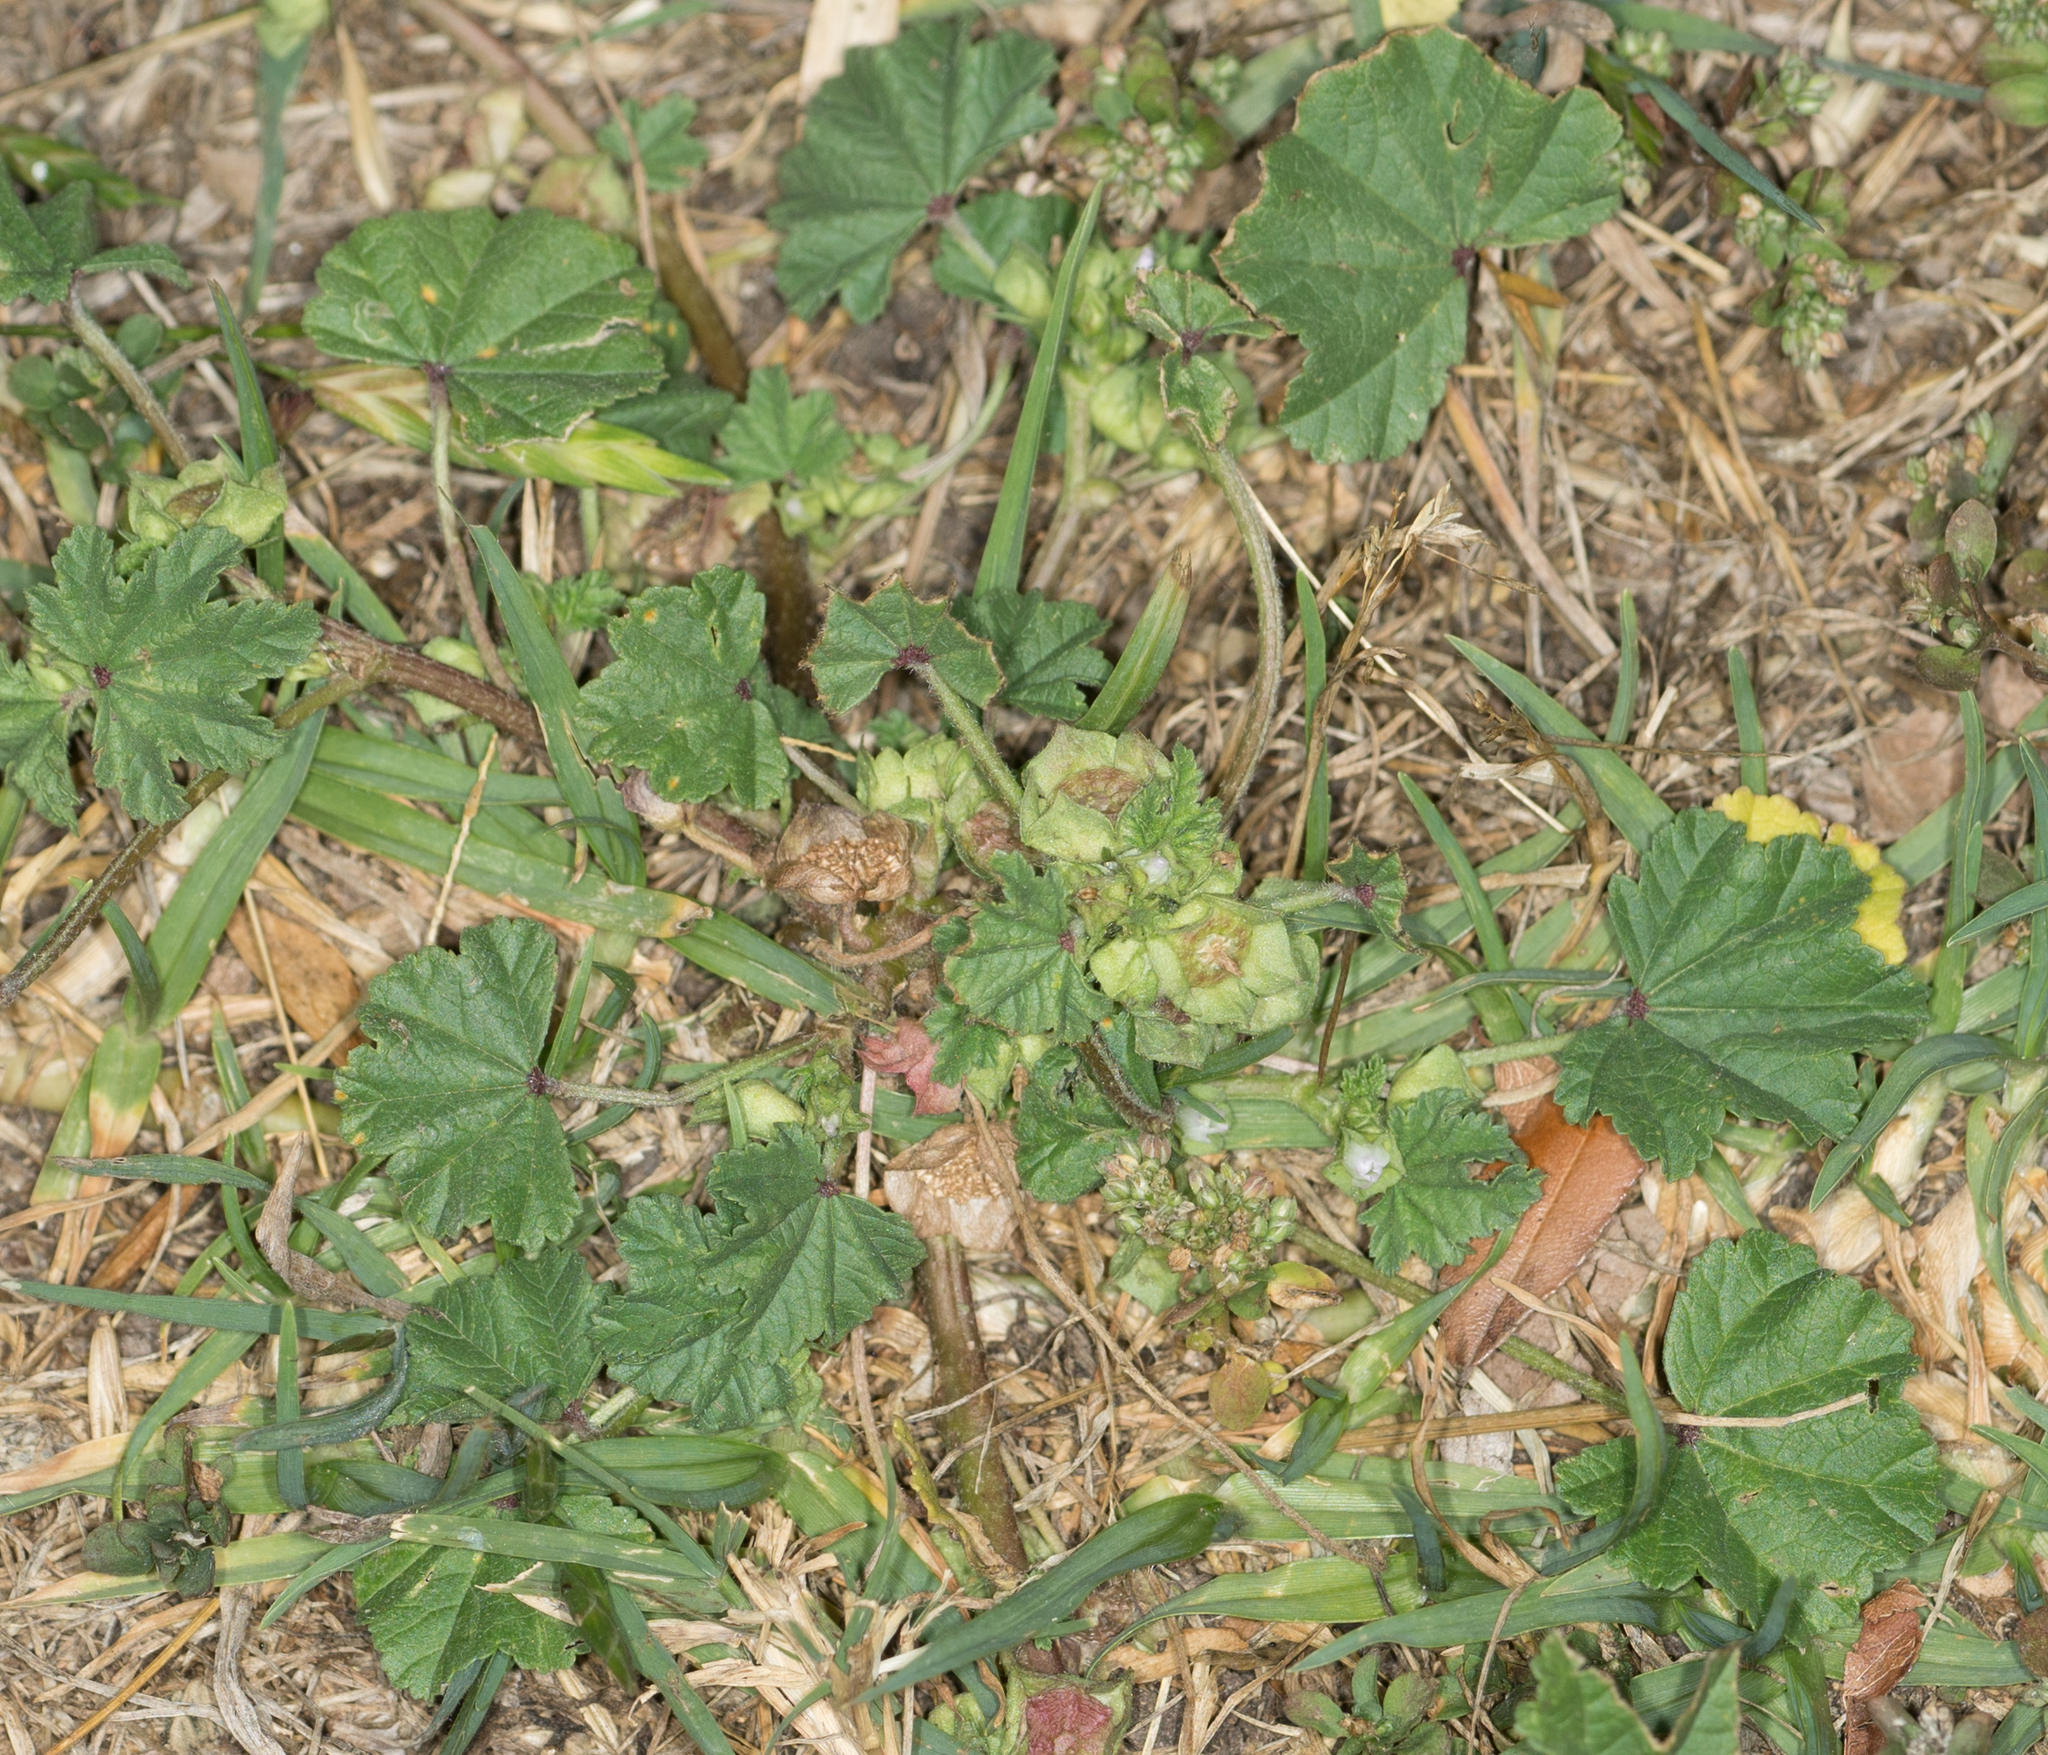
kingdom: Plantae
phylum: Tracheophyta
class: Magnoliopsida
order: Malvales
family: Malvaceae
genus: Malva
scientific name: Malva parviflora
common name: Least mallow
